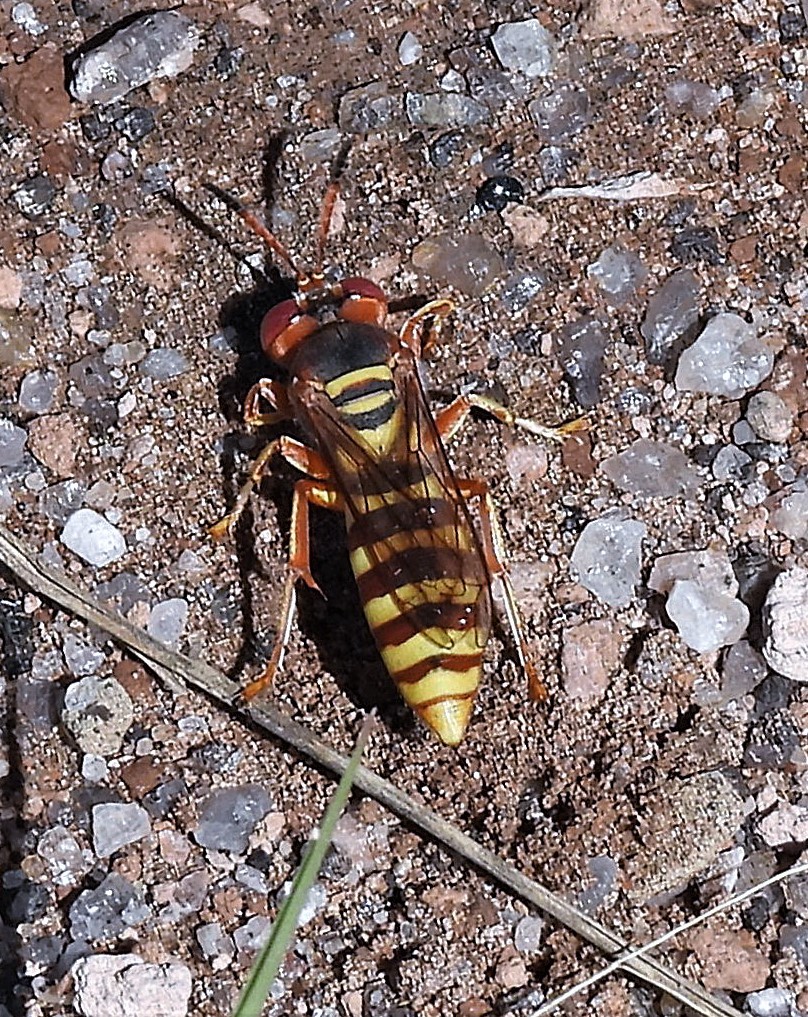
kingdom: Animalia
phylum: Arthropoda
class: Insecta
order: Hymenoptera
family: Crabronidae
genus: Rubrica
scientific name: Rubrica nasuta
